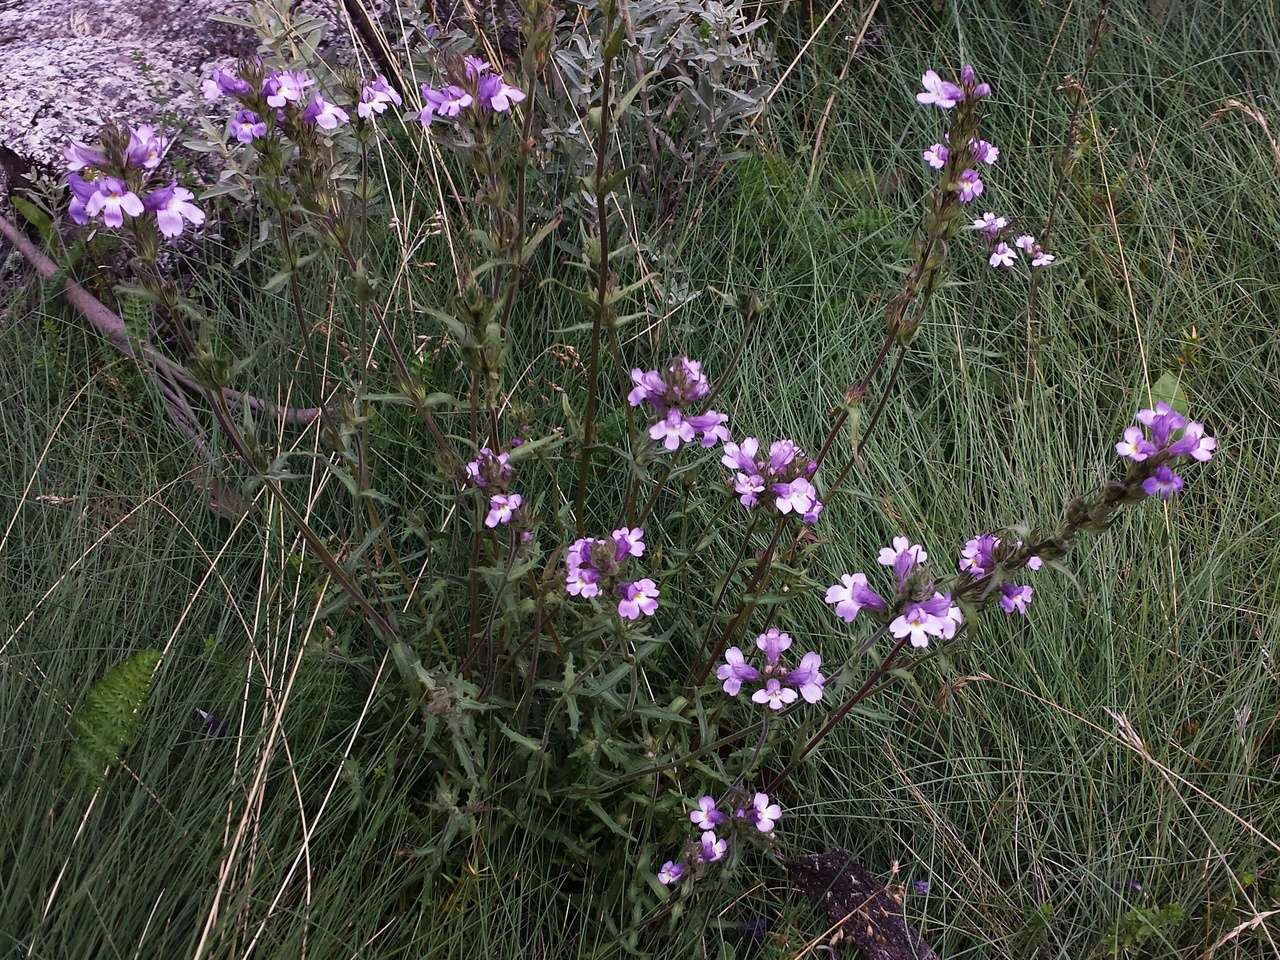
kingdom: Plantae
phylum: Tracheophyta
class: Magnoliopsida
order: Lamiales
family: Orobanchaceae
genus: Euphrasia
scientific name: Euphrasia caudata
